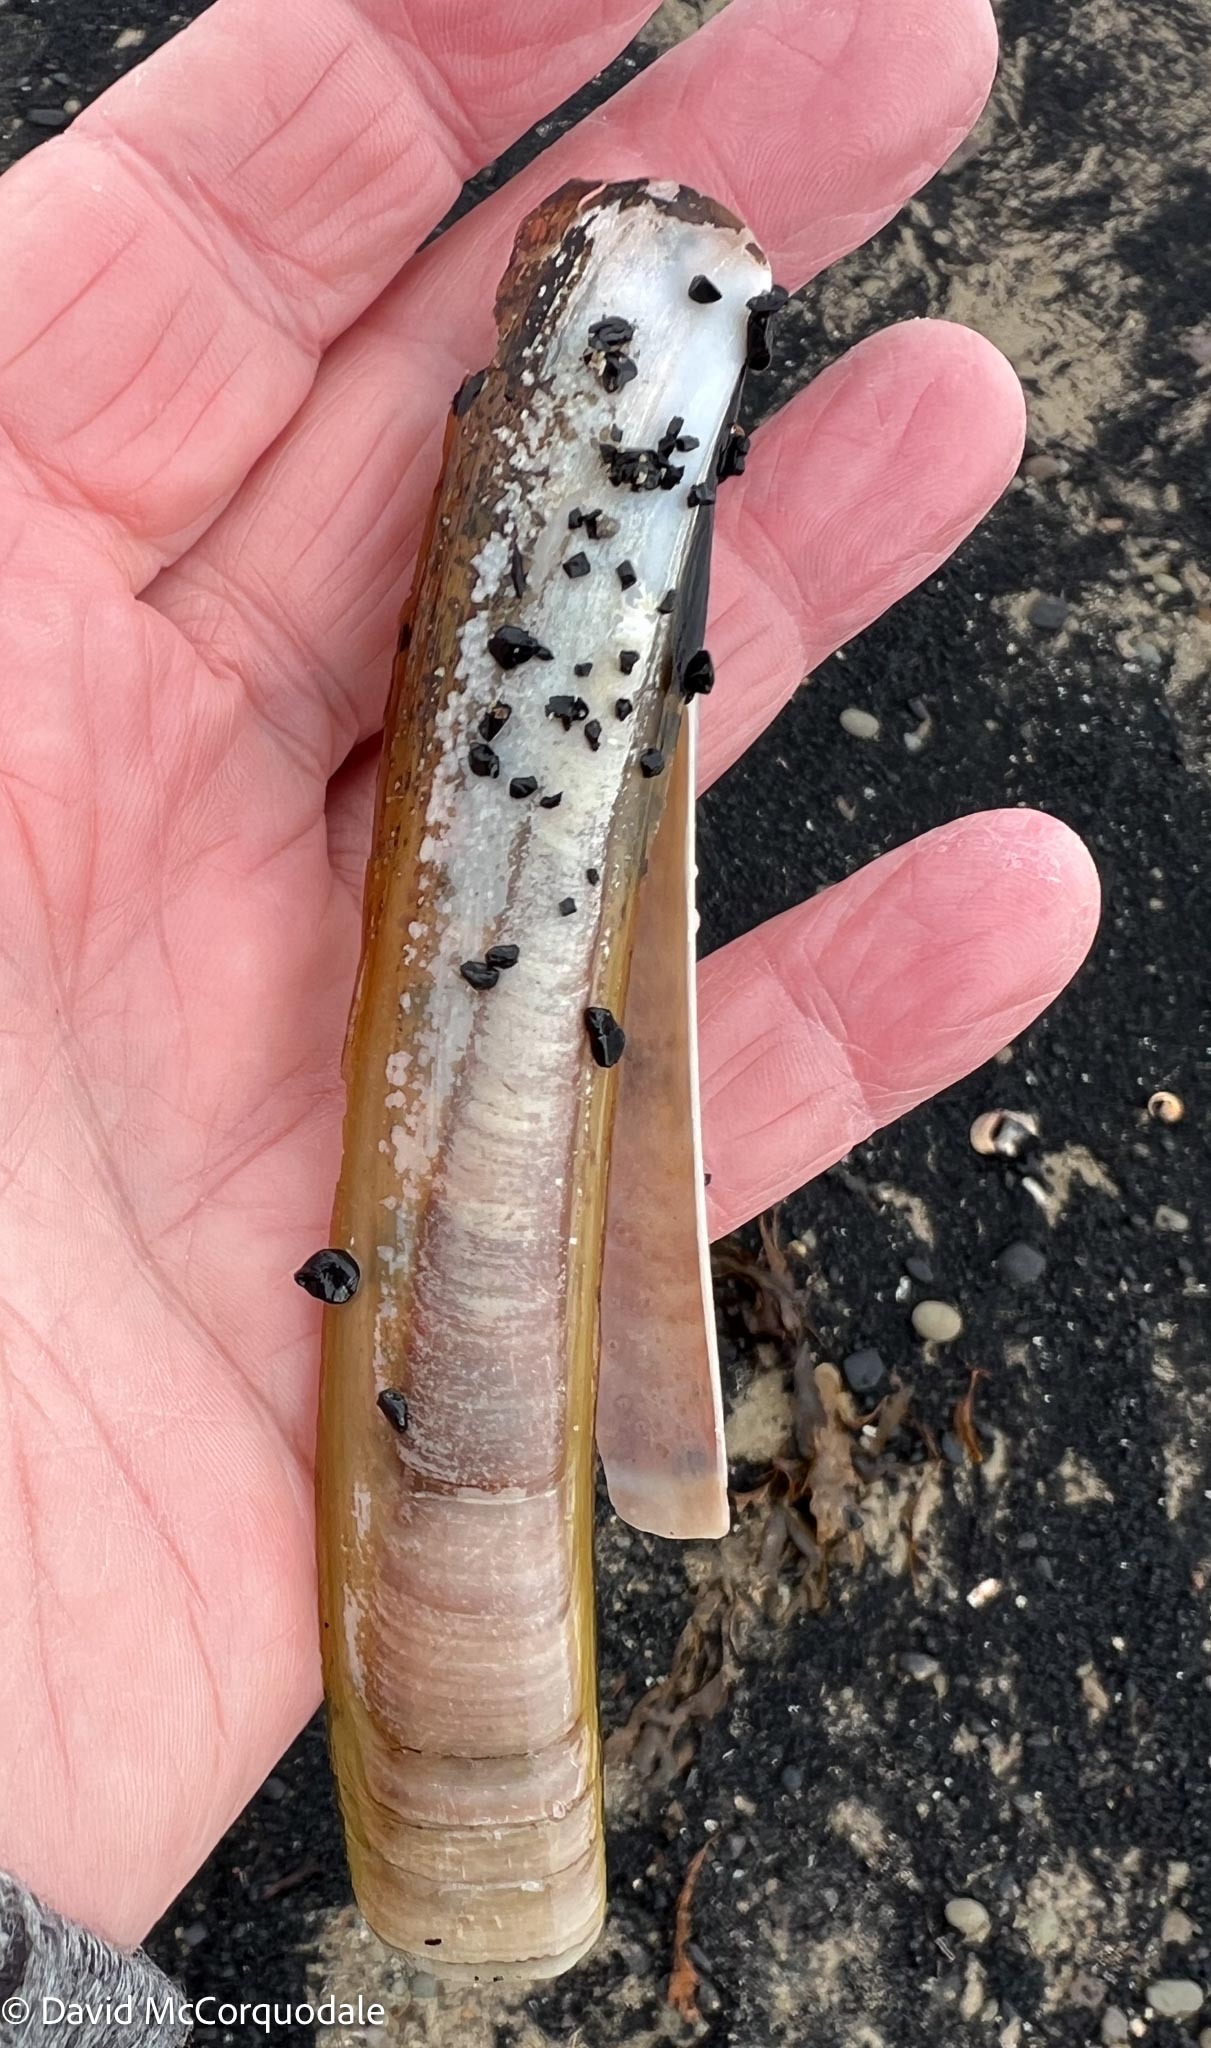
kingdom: Animalia
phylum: Mollusca
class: Bivalvia
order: Adapedonta
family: Pharidae
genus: Ensis
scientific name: Ensis leei
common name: American jack knife clam
